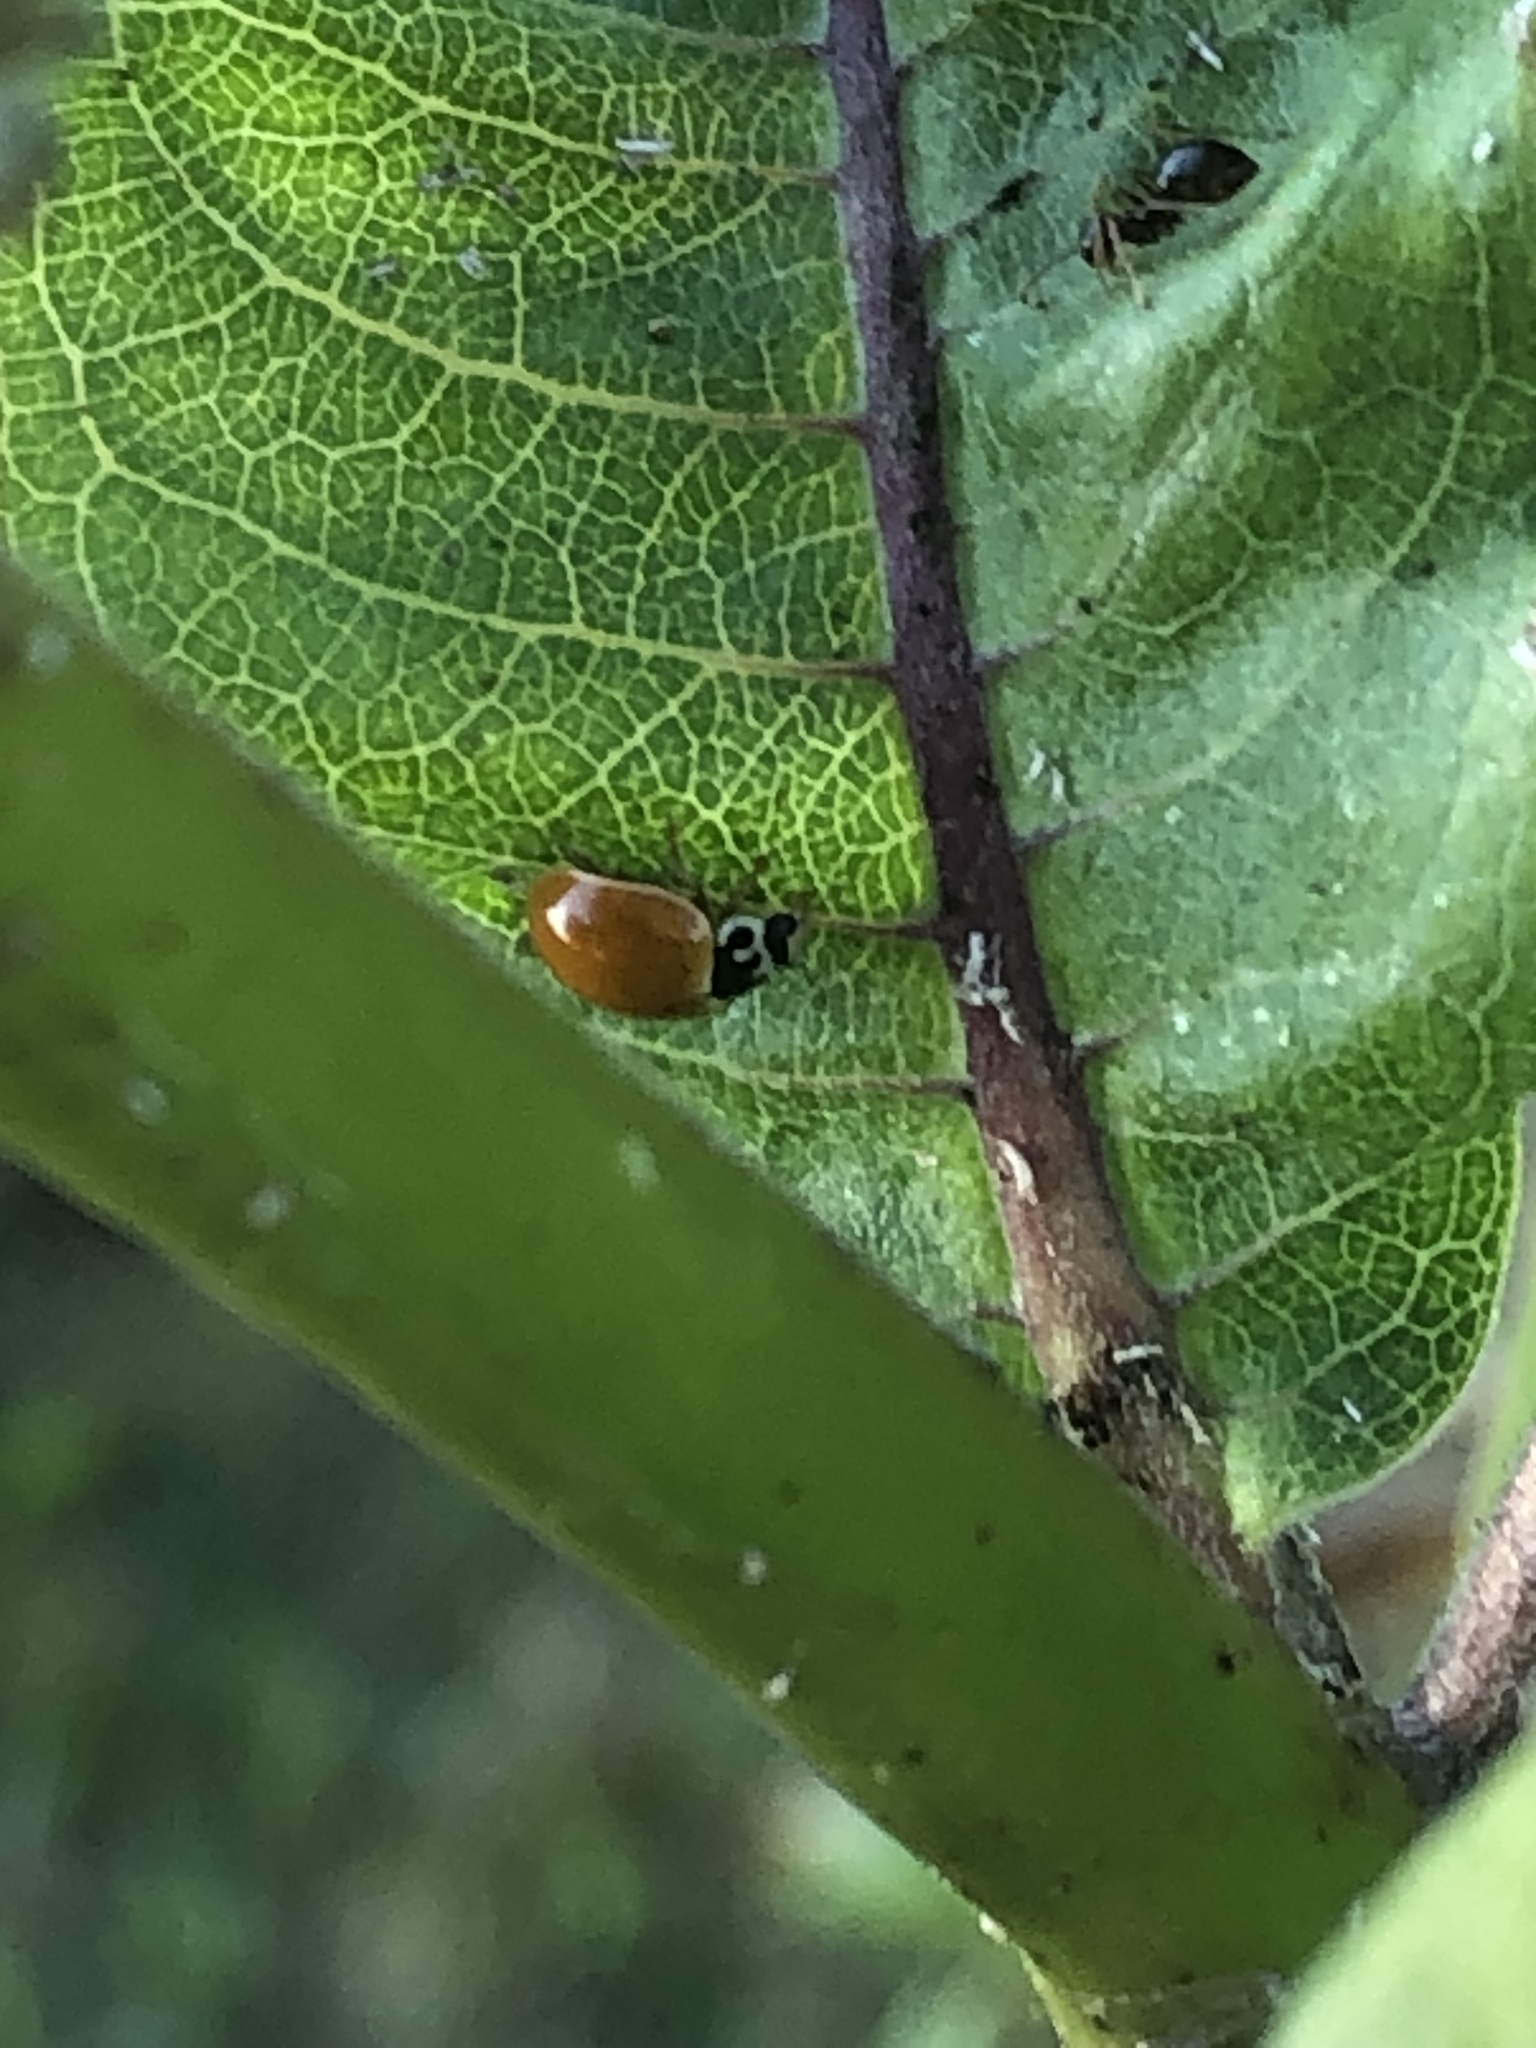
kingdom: Animalia
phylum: Arthropoda
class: Insecta
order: Coleoptera
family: Coccinellidae
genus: Cycloneda
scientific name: Cycloneda munda
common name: Polished lady beetle
